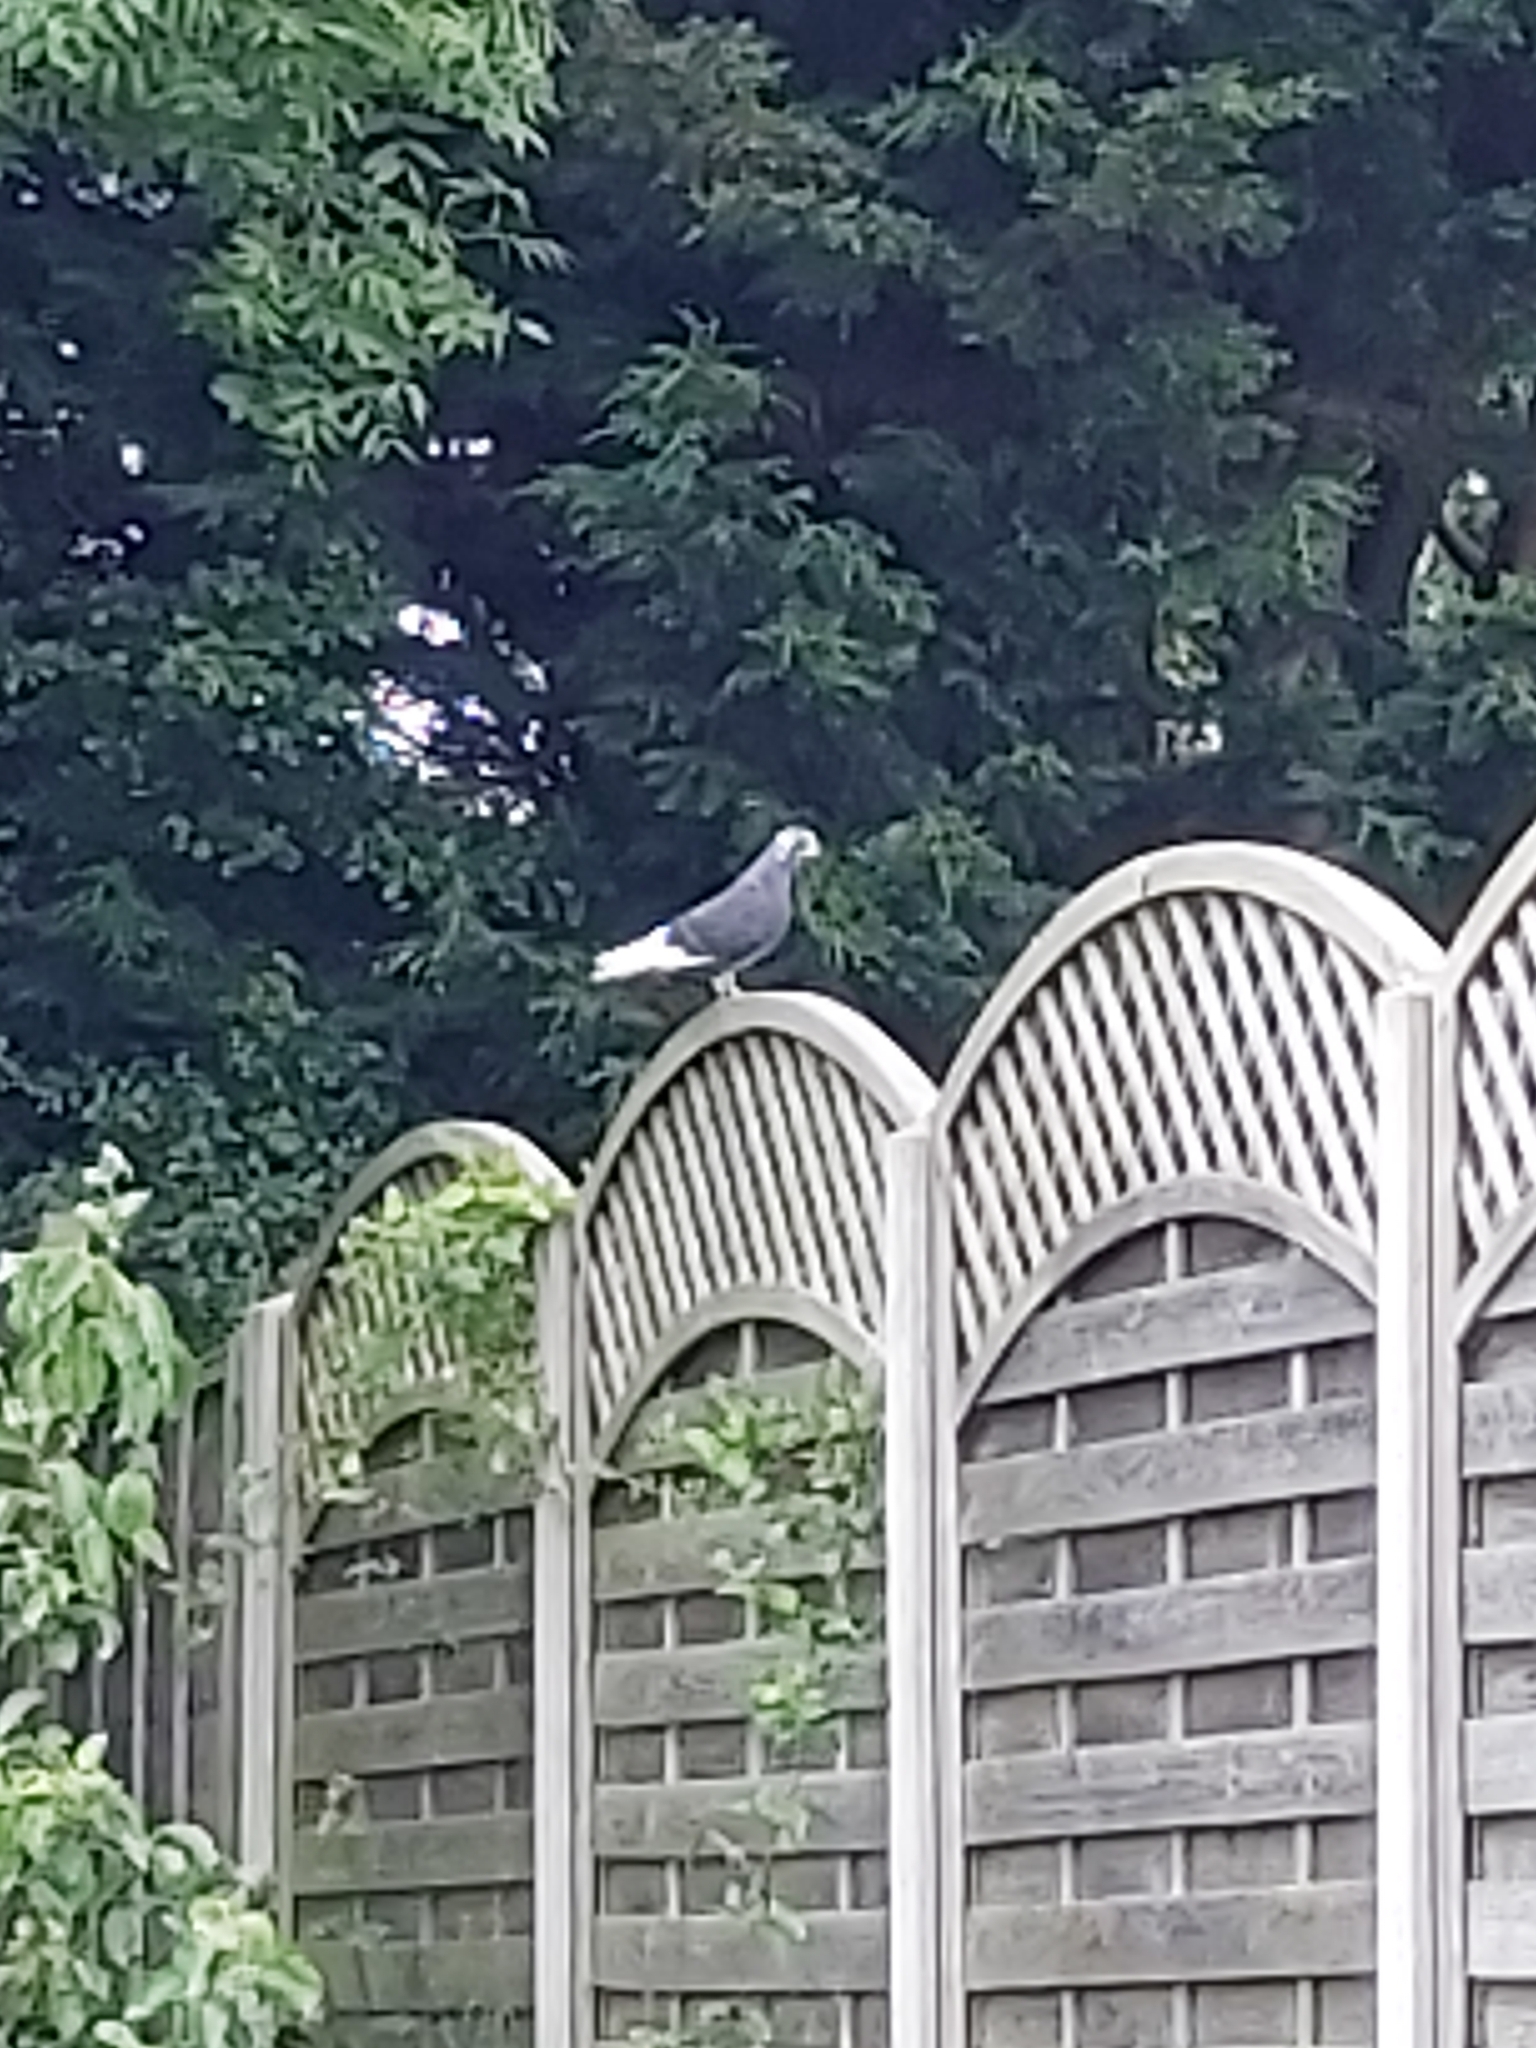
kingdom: Animalia
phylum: Chordata
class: Aves
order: Columbiformes
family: Columbidae
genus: Columba
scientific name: Columba livia
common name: Rock pigeon
